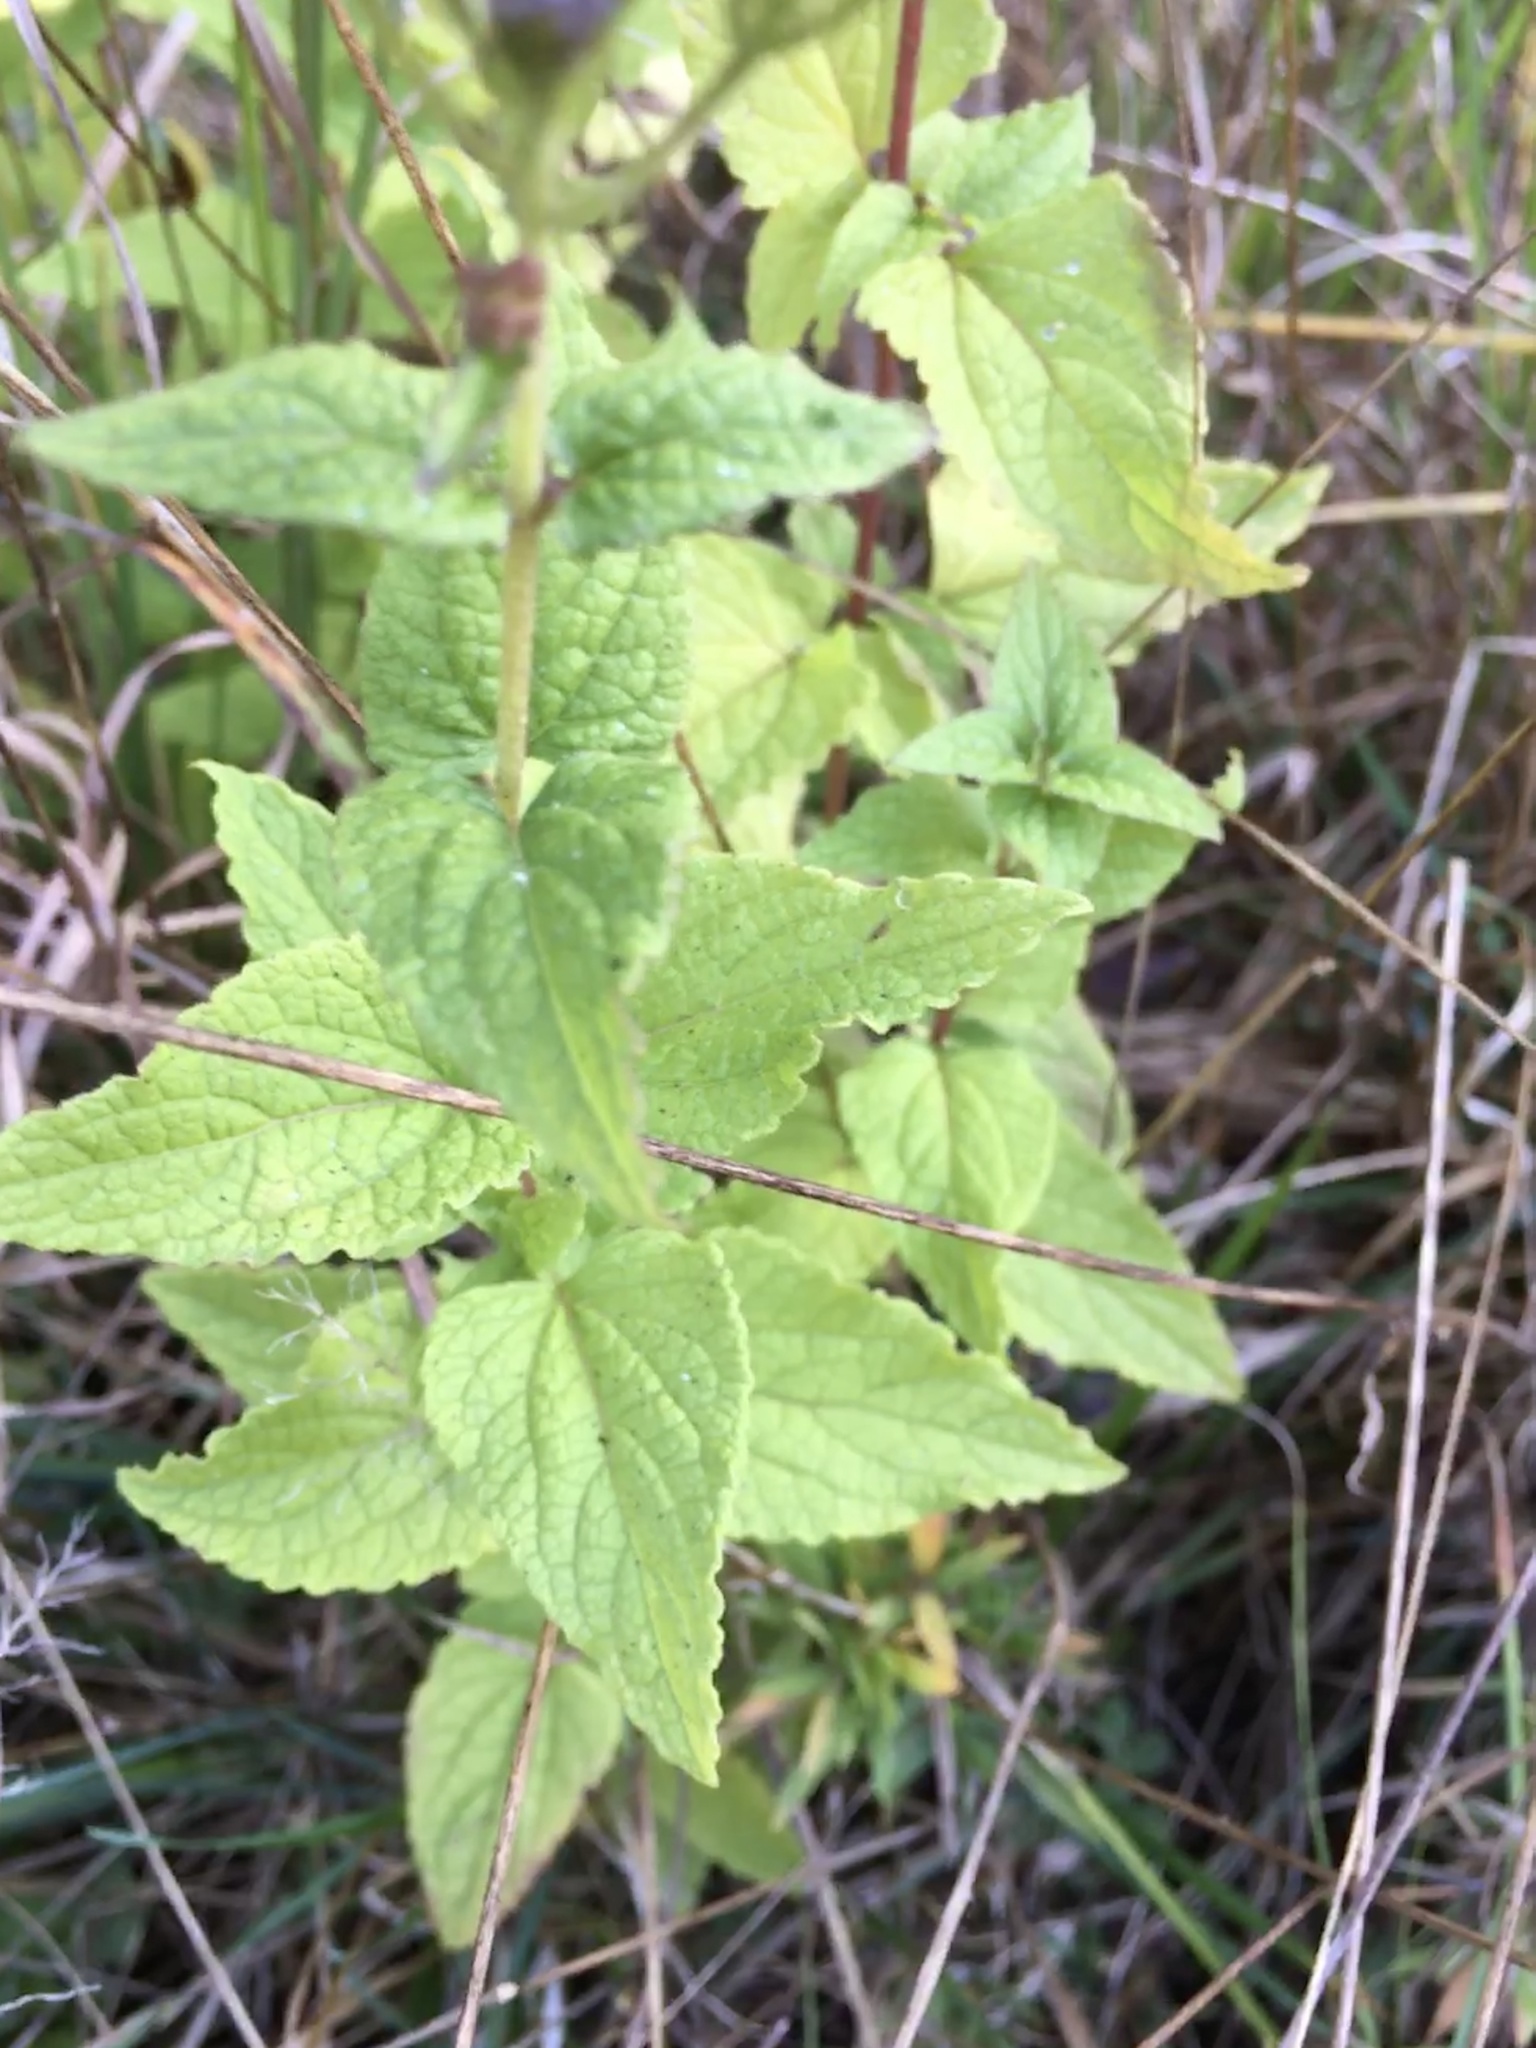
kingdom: Plantae
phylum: Tracheophyta
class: Magnoliopsida
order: Asterales
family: Asteraceae
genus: Conoclinium
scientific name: Conoclinium coelestinum
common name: Blue mistflower
